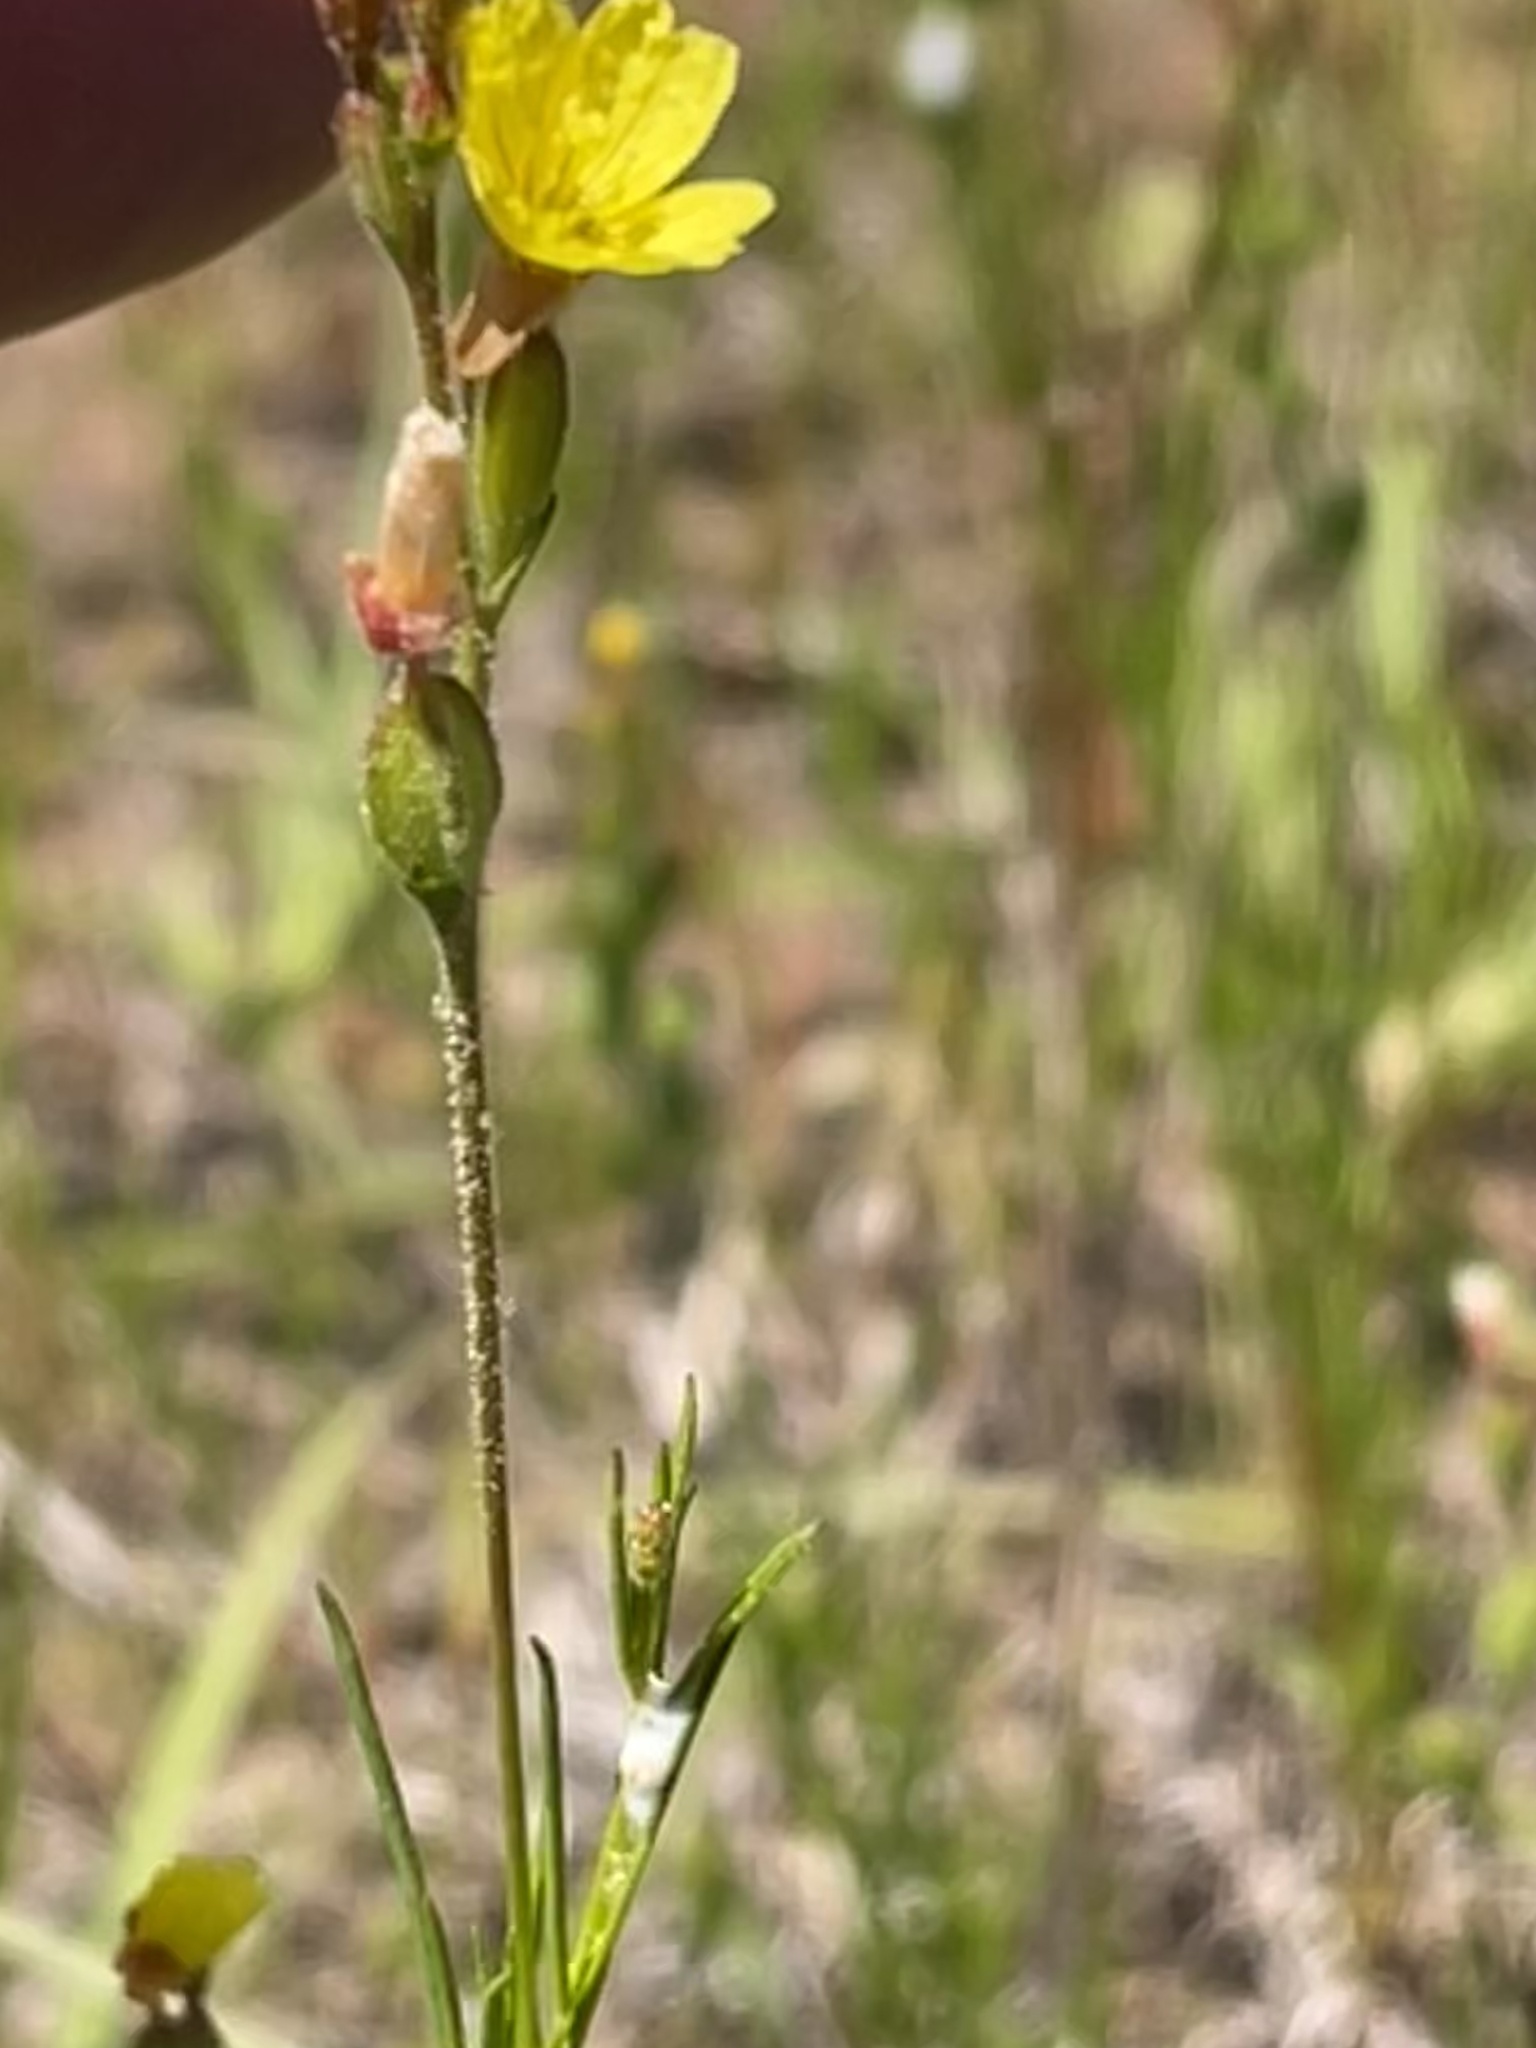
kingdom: Plantae
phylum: Tracheophyta
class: Magnoliopsida
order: Myrtales
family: Onagraceae
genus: Oenothera
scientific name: Oenothera linifolia
